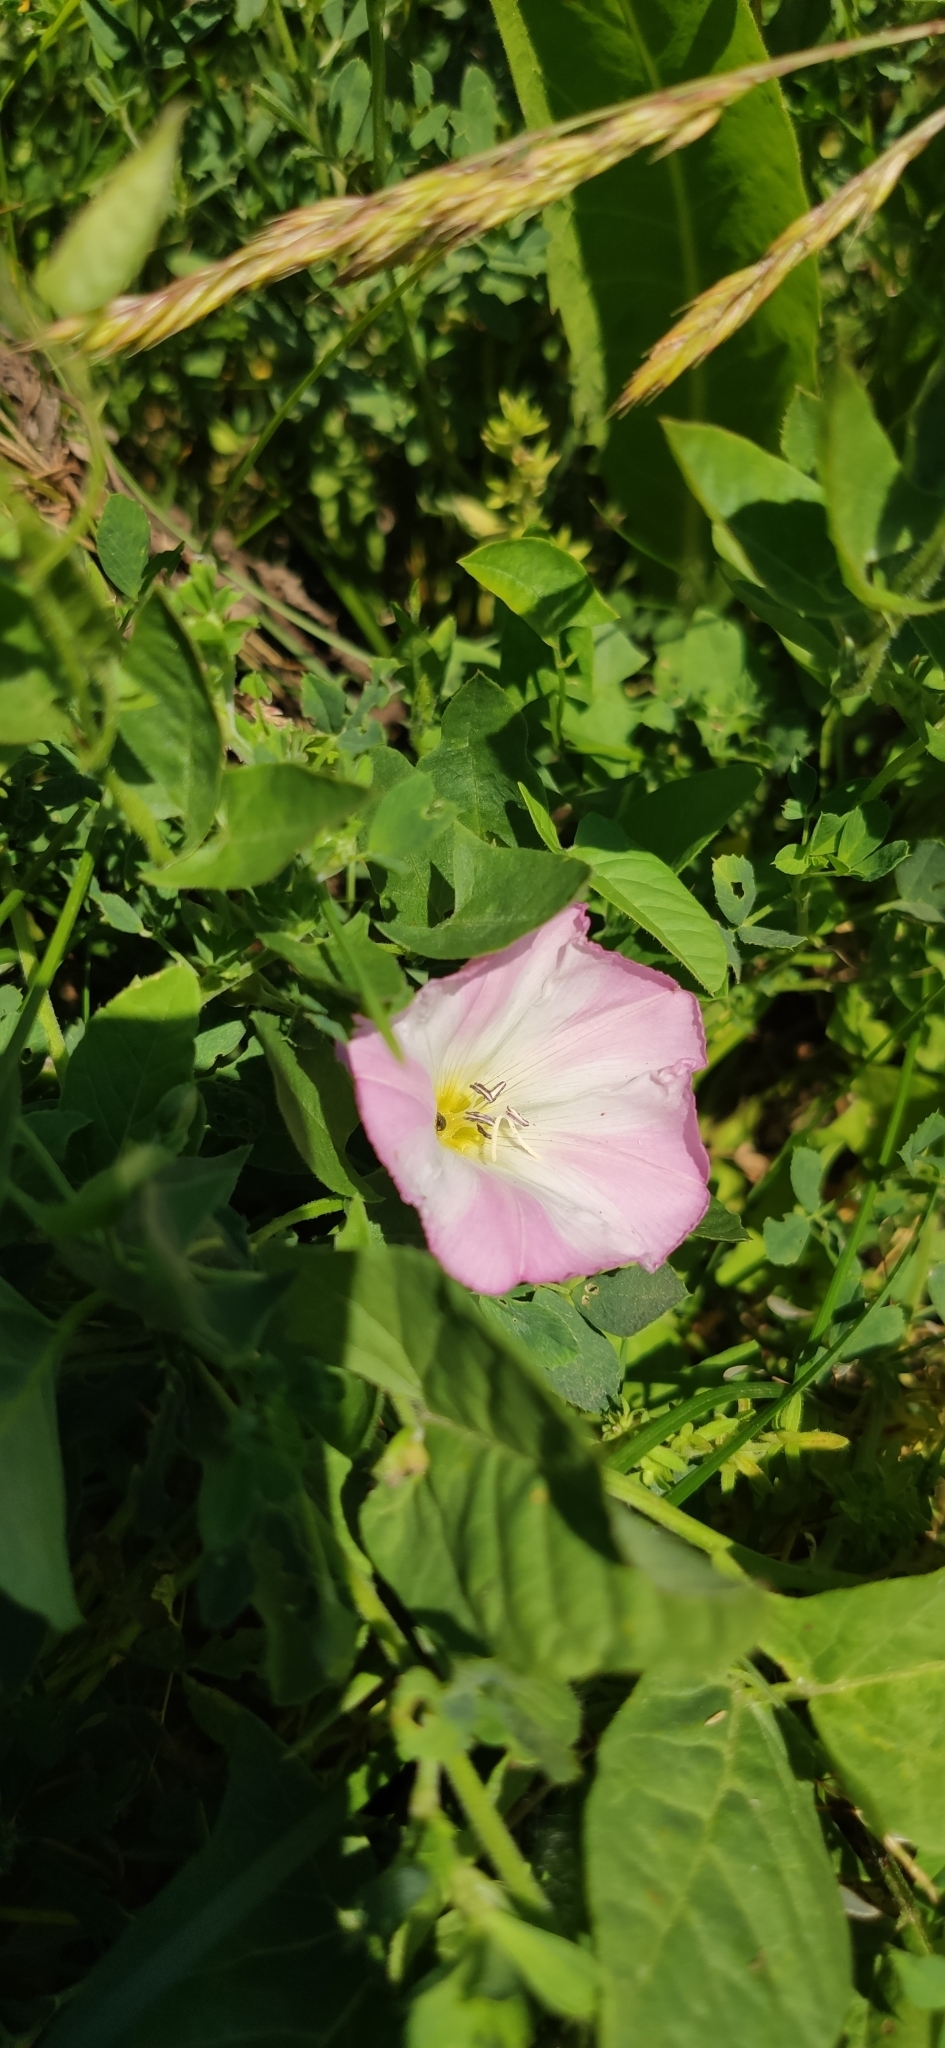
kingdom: Plantae
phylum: Tracheophyta
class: Magnoliopsida
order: Solanales
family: Convolvulaceae
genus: Convolvulus
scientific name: Convolvulus arvensis
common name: Field bindweed
